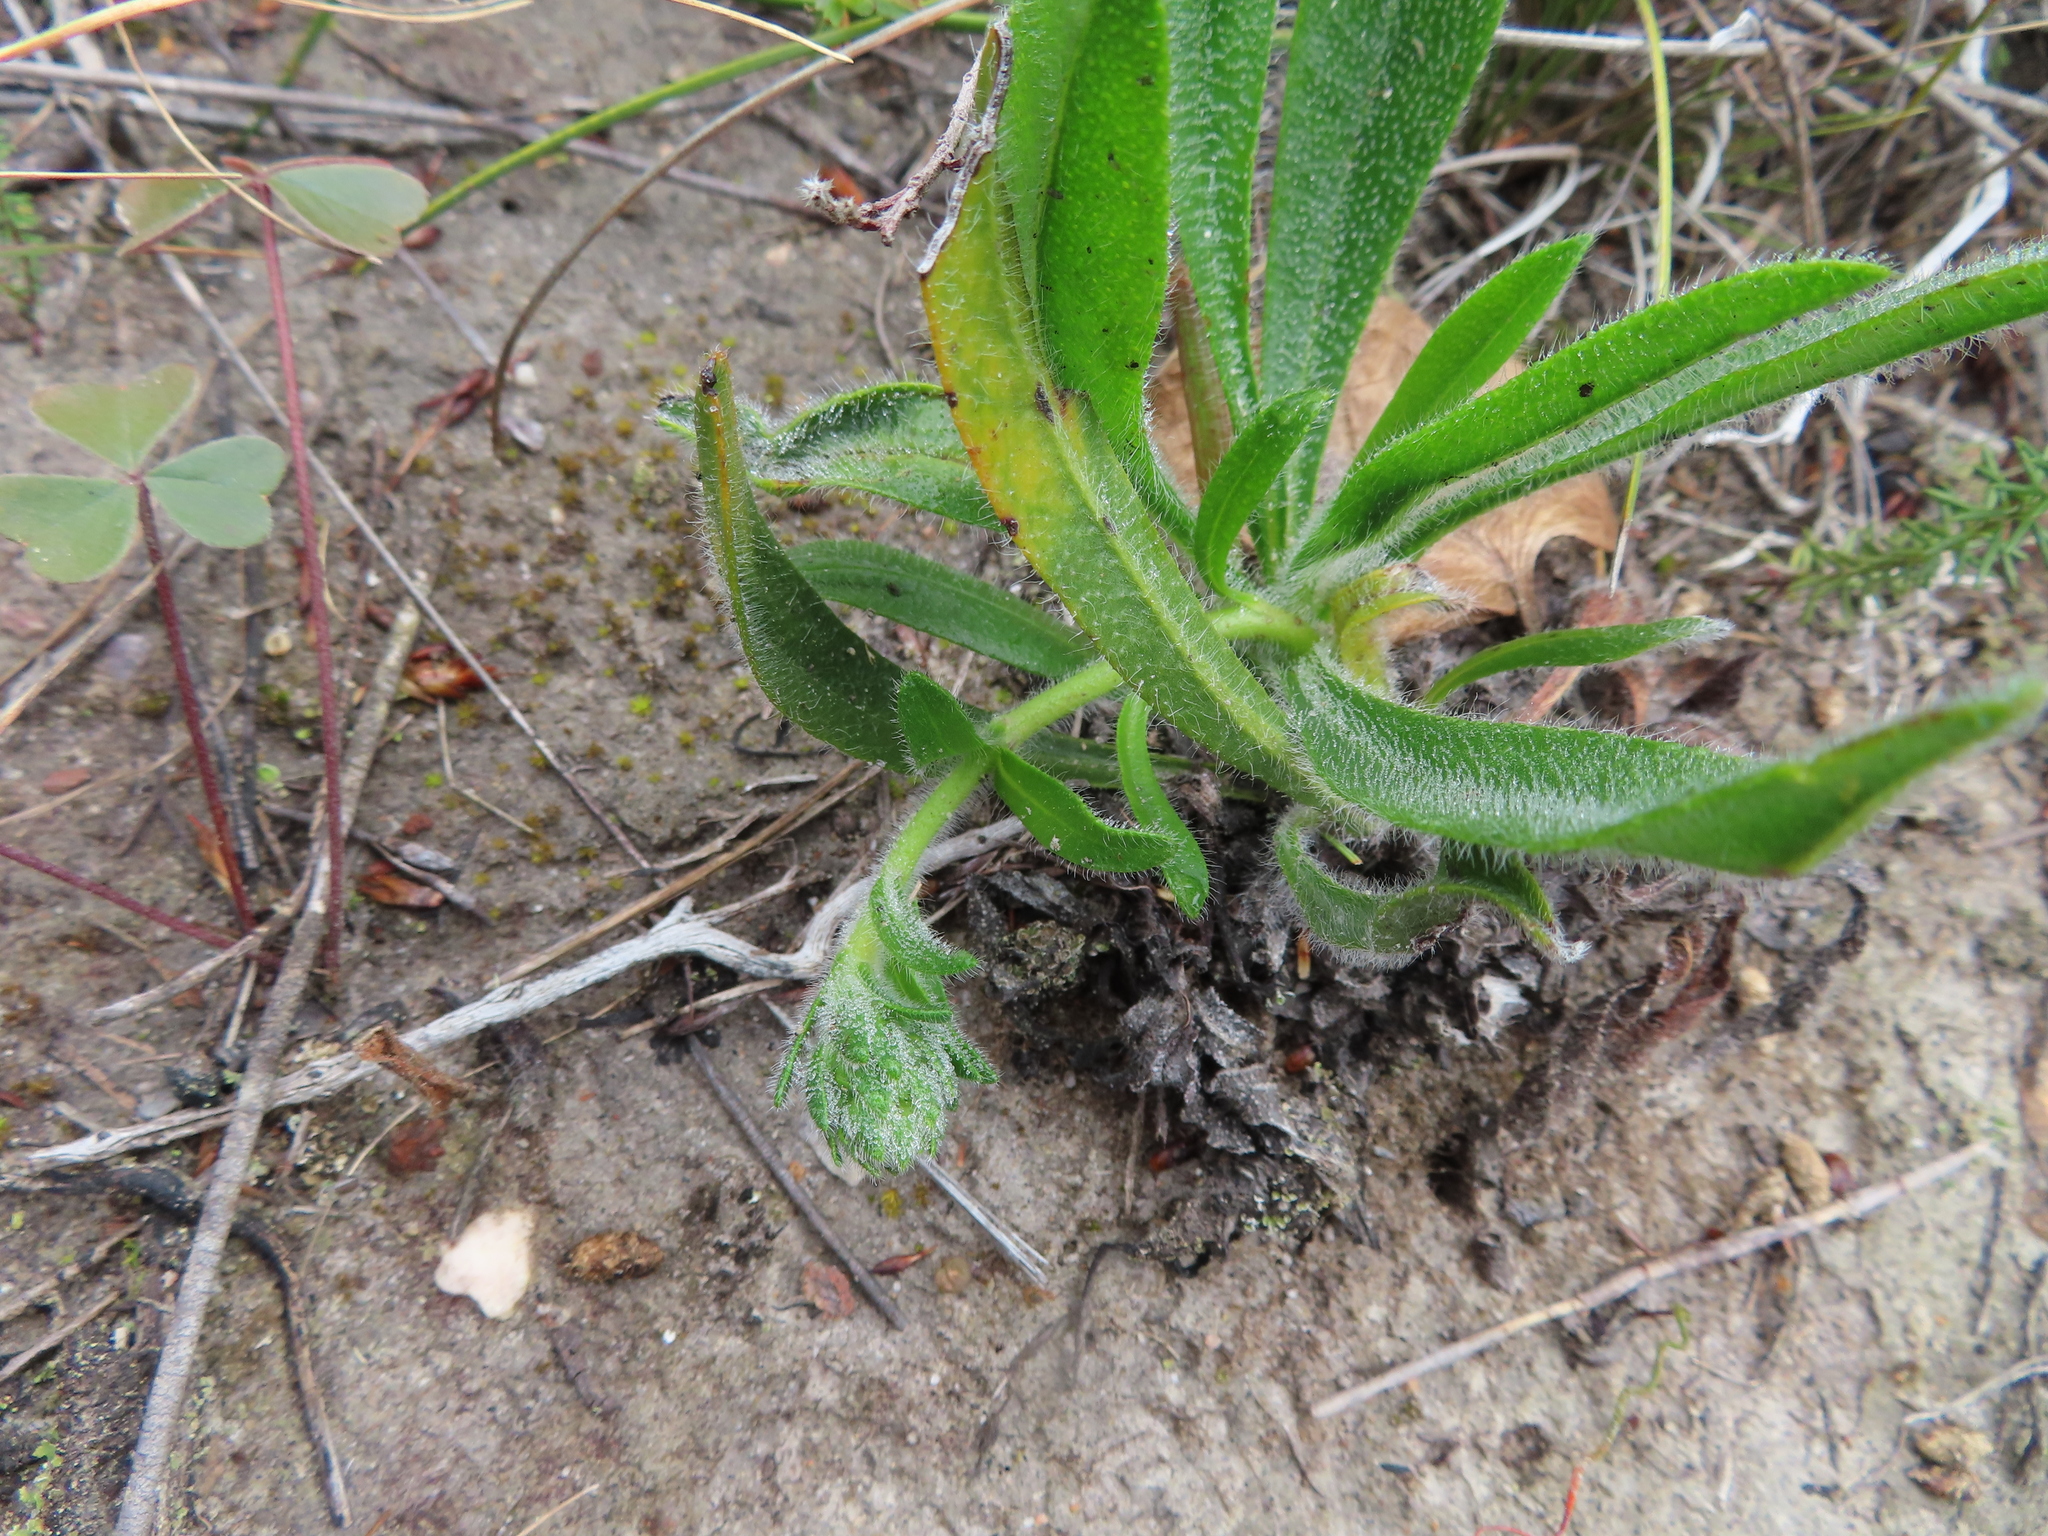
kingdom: Plantae
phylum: Tracheophyta
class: Magnoliopsida
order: Boraginales
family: Boraginaceae
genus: Lobostemon
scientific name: Lobostemon ecklonianus
